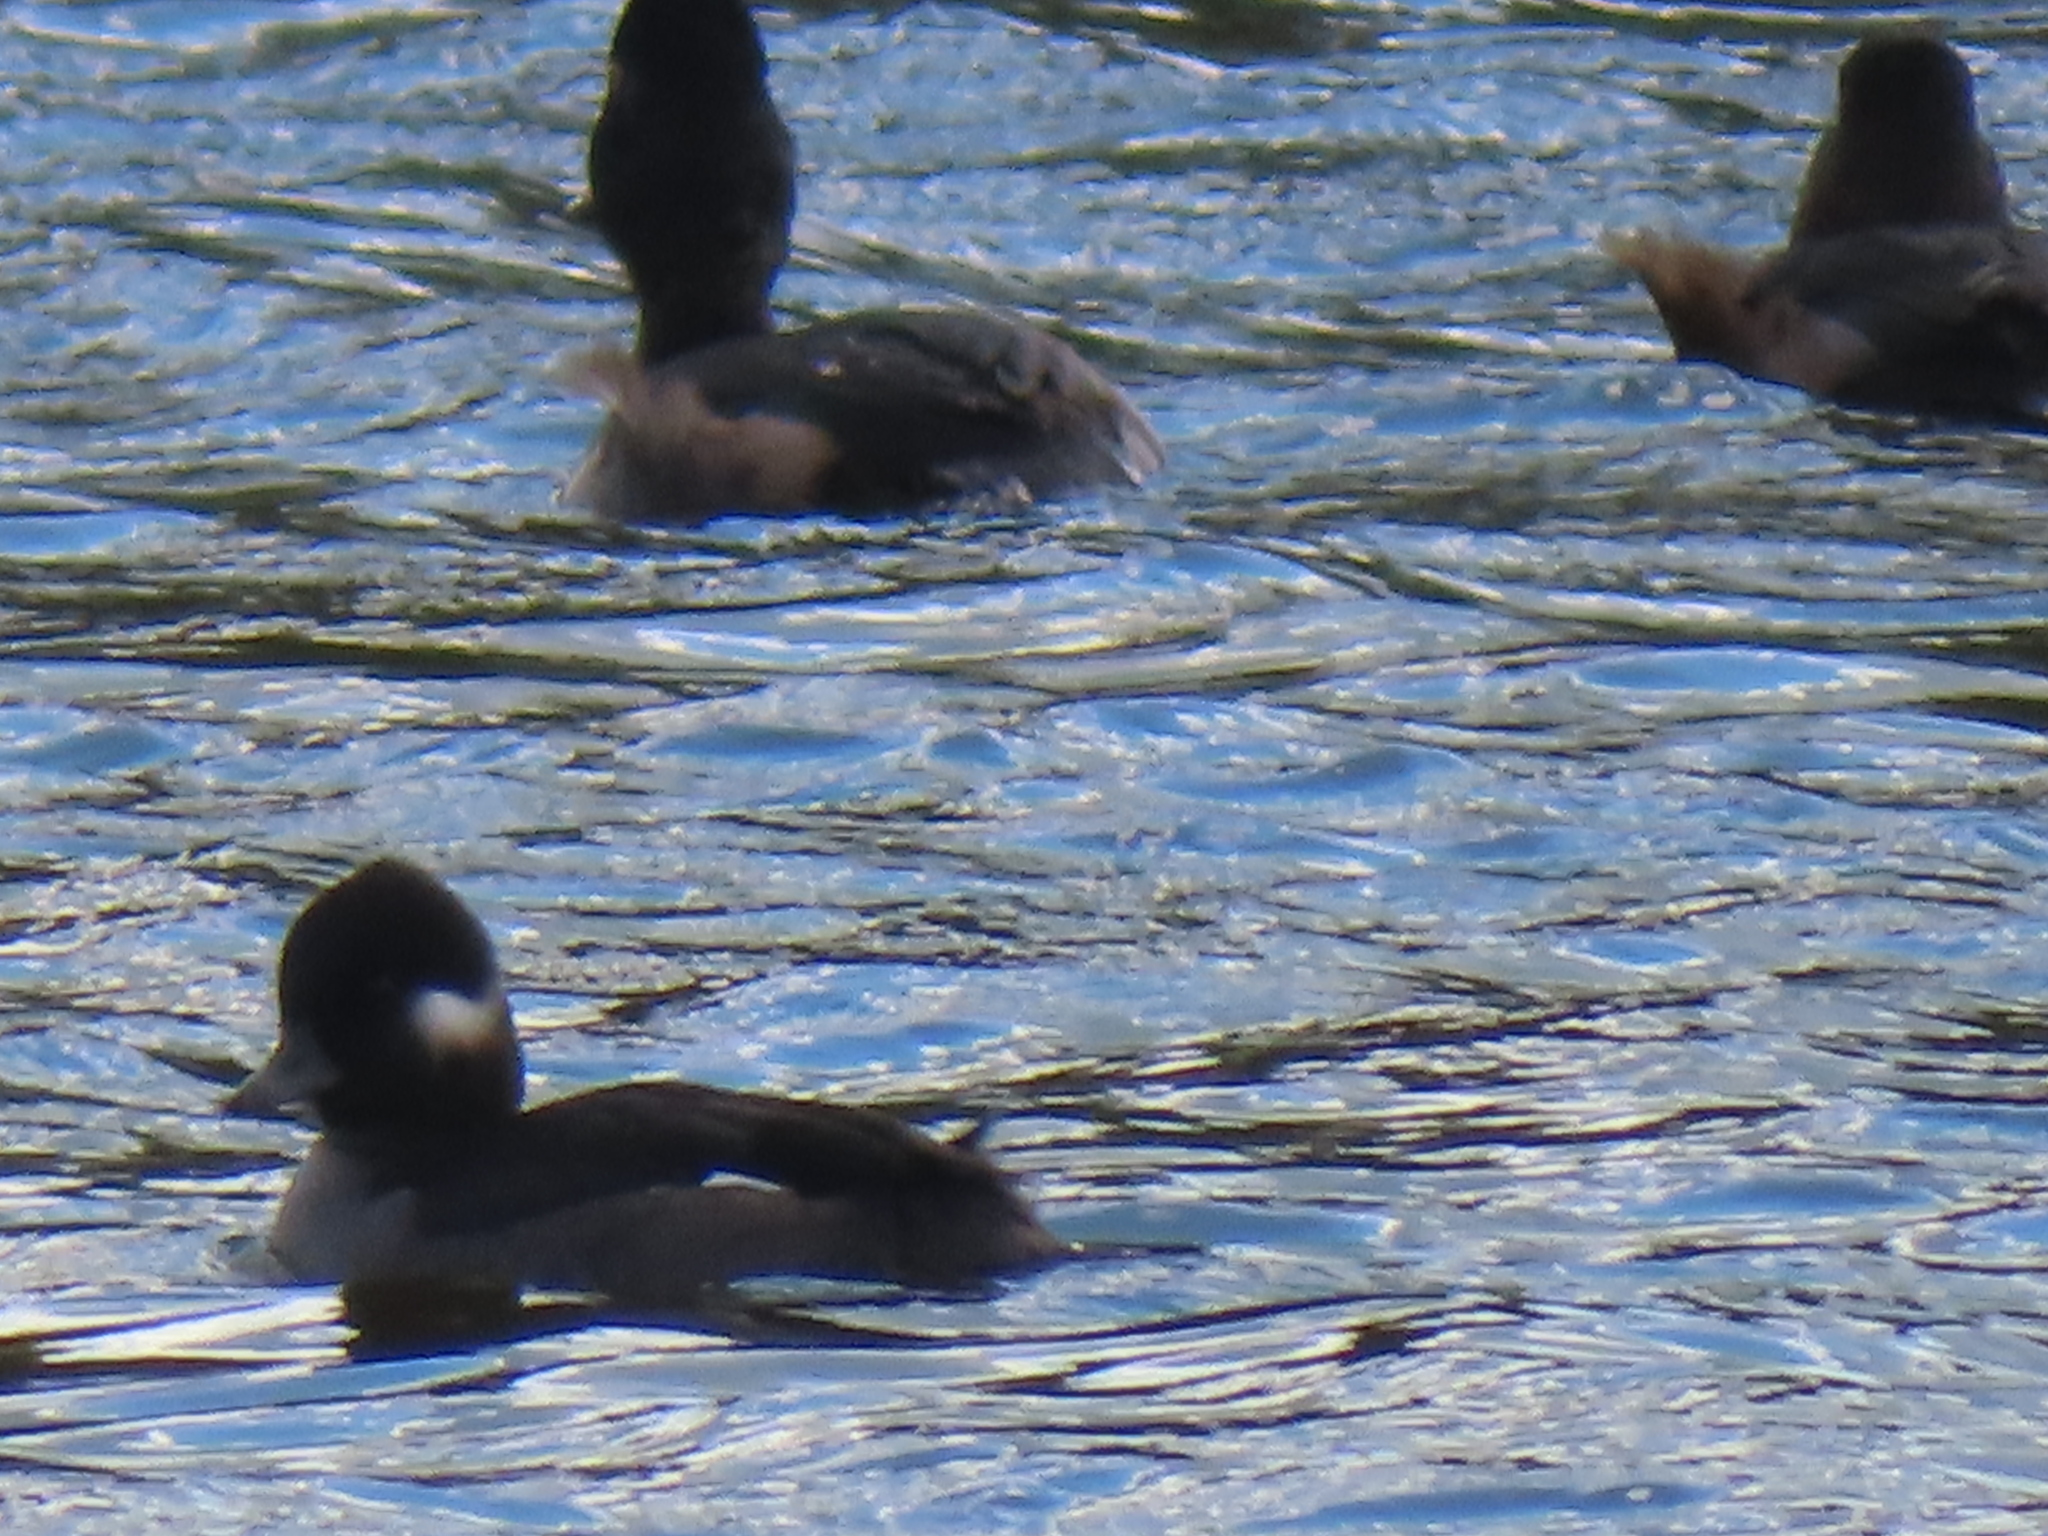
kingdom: Animalia
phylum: Chordata
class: Aves
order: Anseriformes
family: Anatidae
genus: Aythya
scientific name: Aythya collaris
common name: Ring-necked duck
